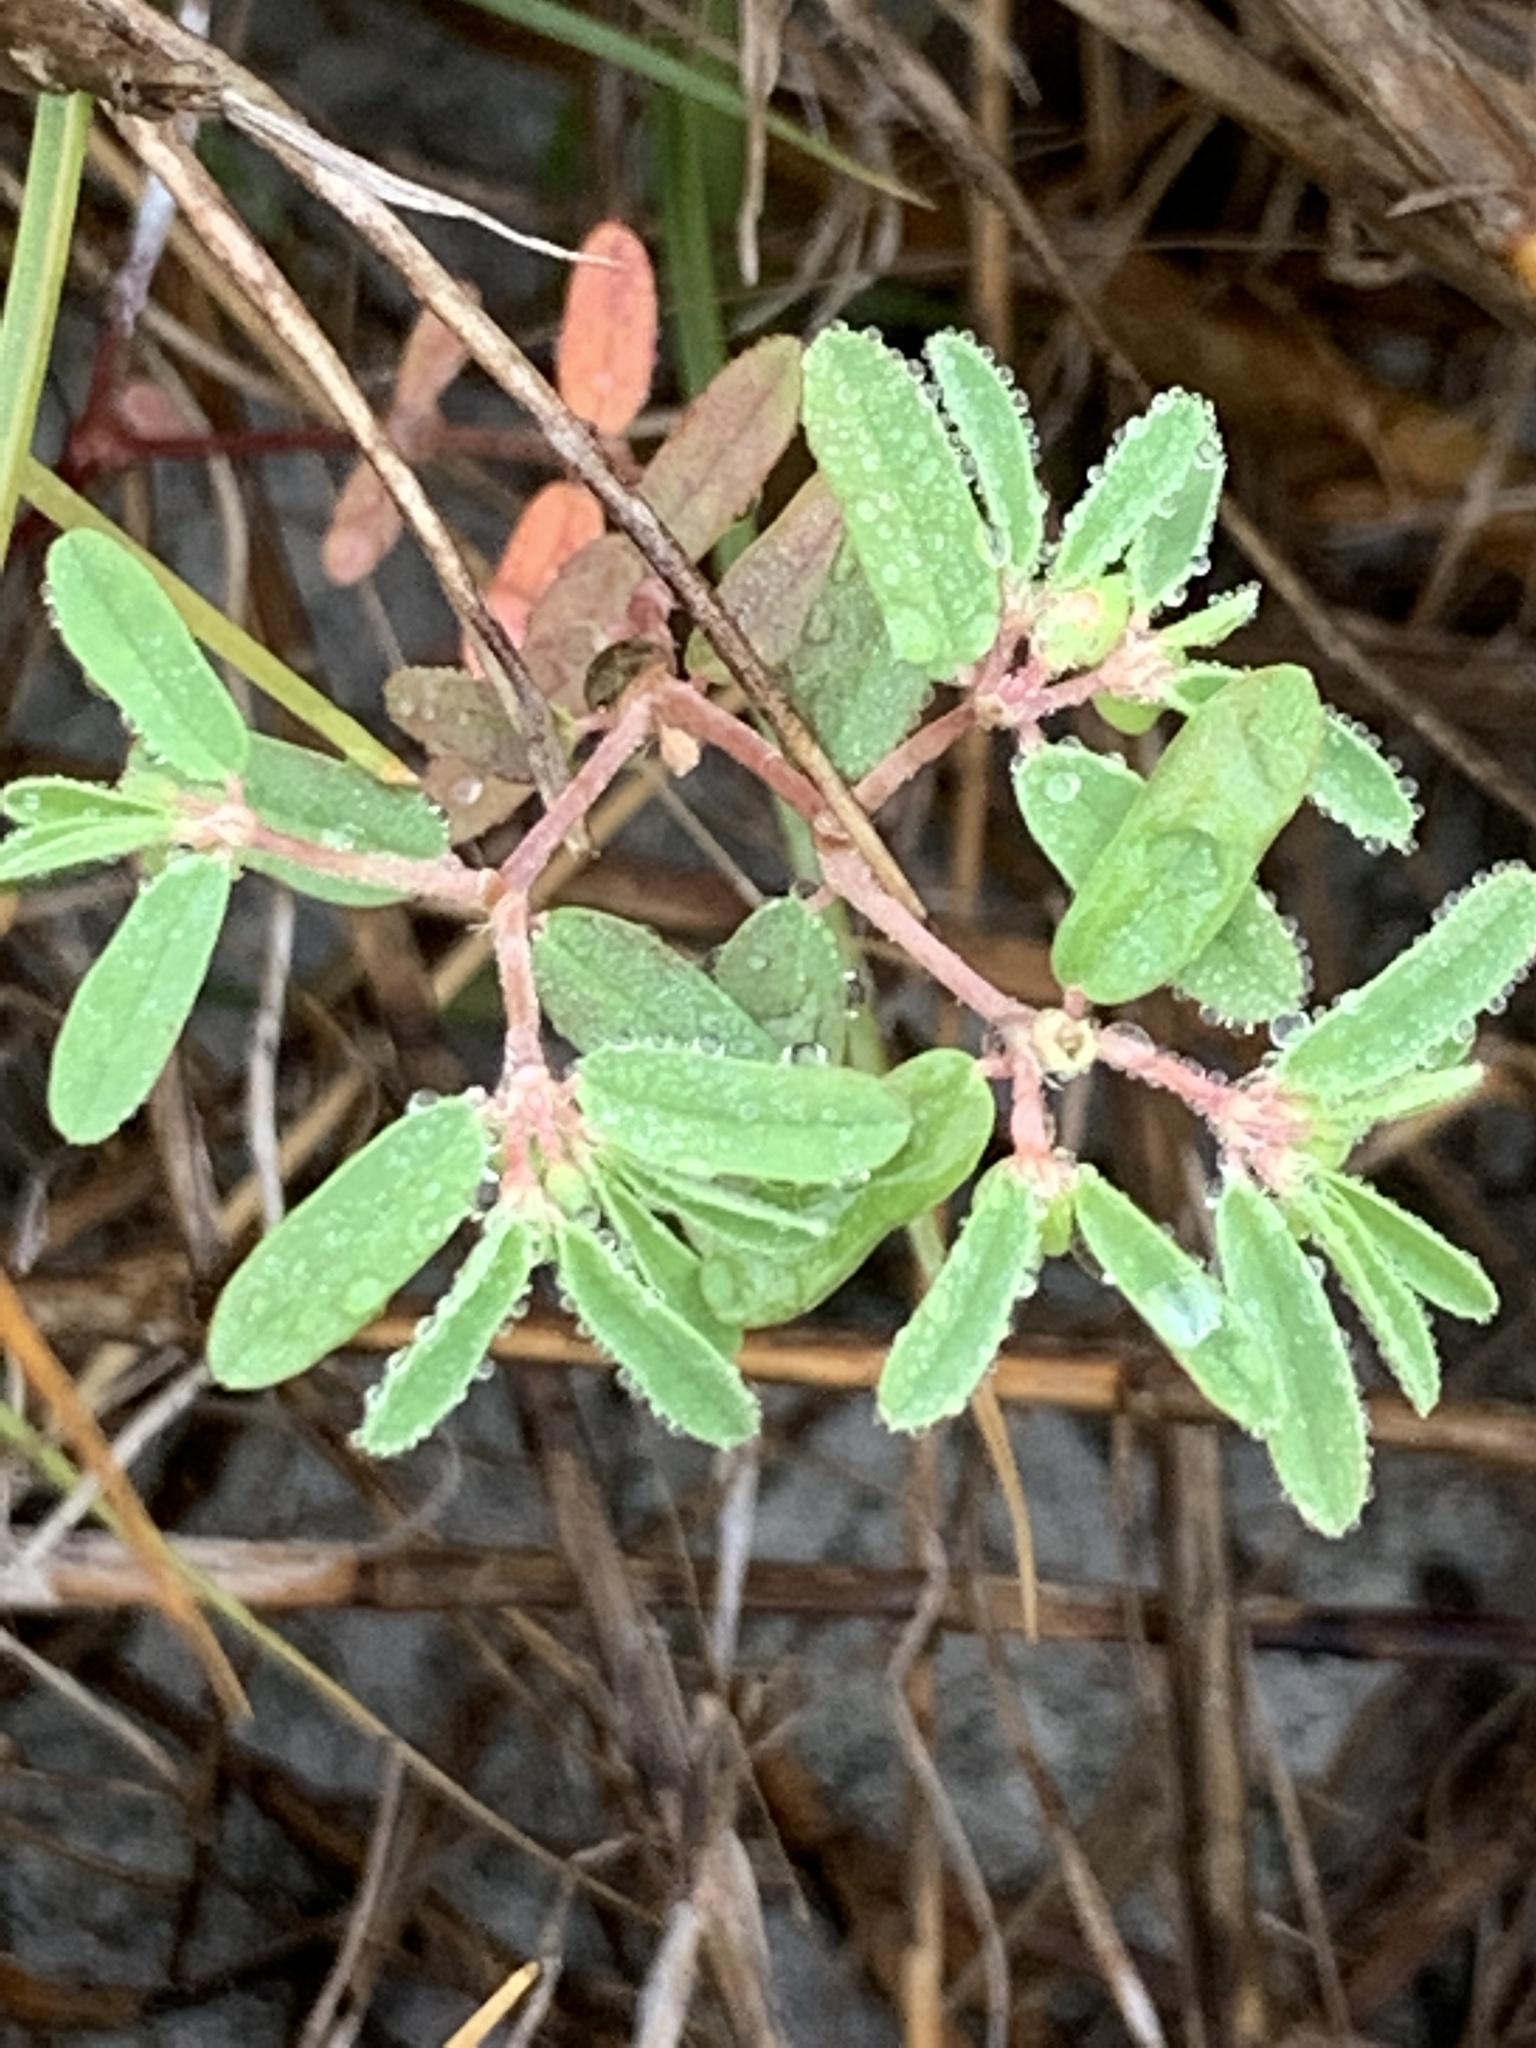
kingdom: Plantae
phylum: Tracheophyta
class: Magnoliopsida
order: Malpighiales
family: Euphorbiaceae
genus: Euphorbia
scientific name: Euphorbia bombensis
